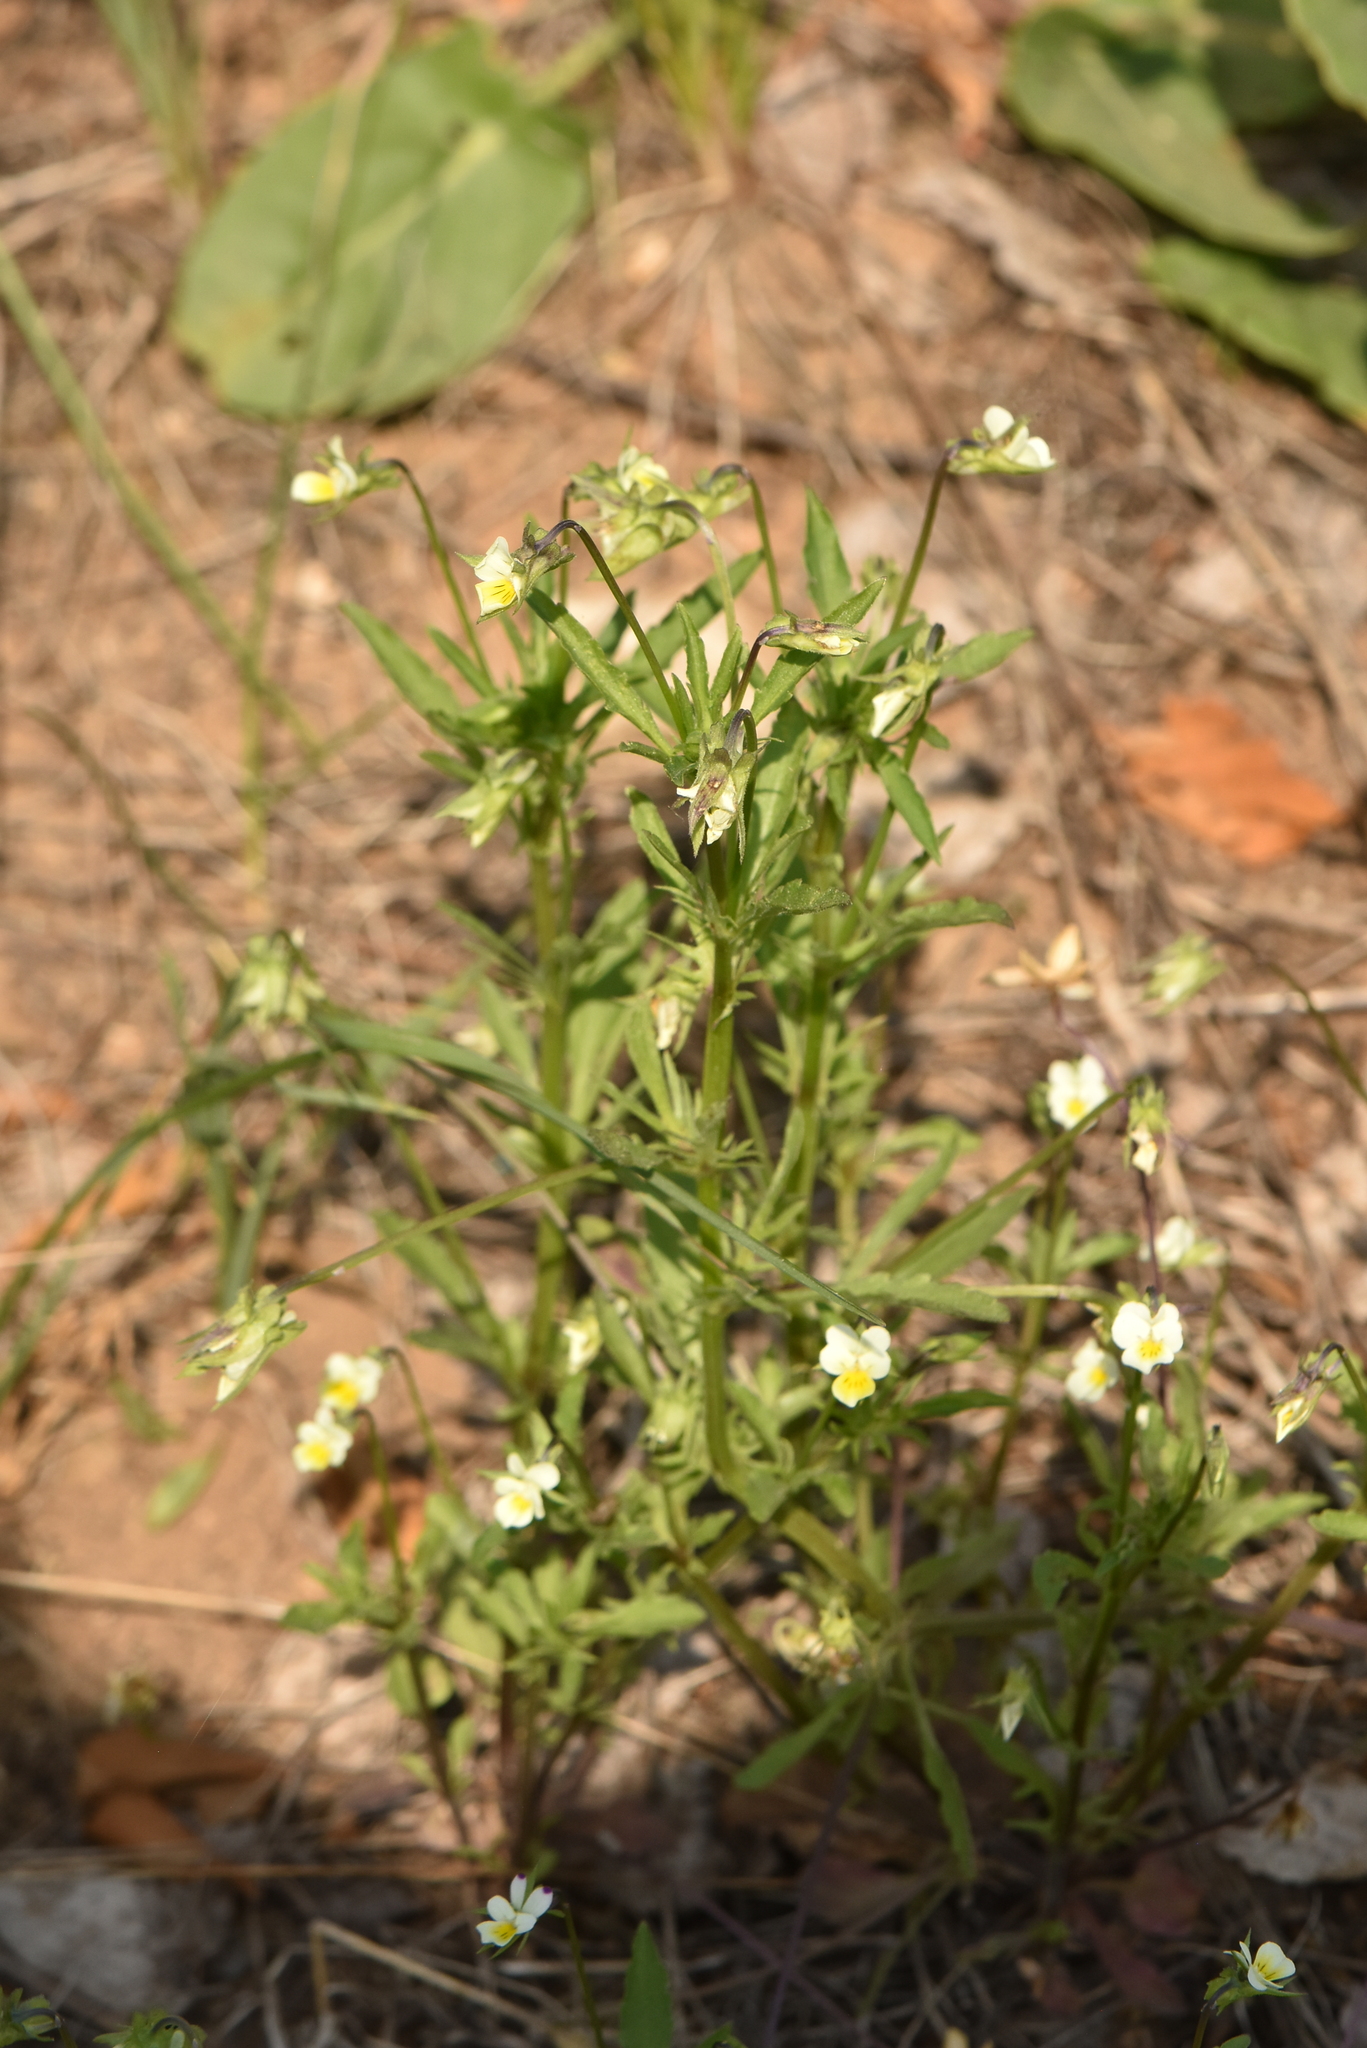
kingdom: Plantae
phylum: Tracheophyta
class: Magnoliopsida
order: Malpighiales
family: Violaceae
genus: Viola
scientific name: Viola arvensis
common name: Field pansy
